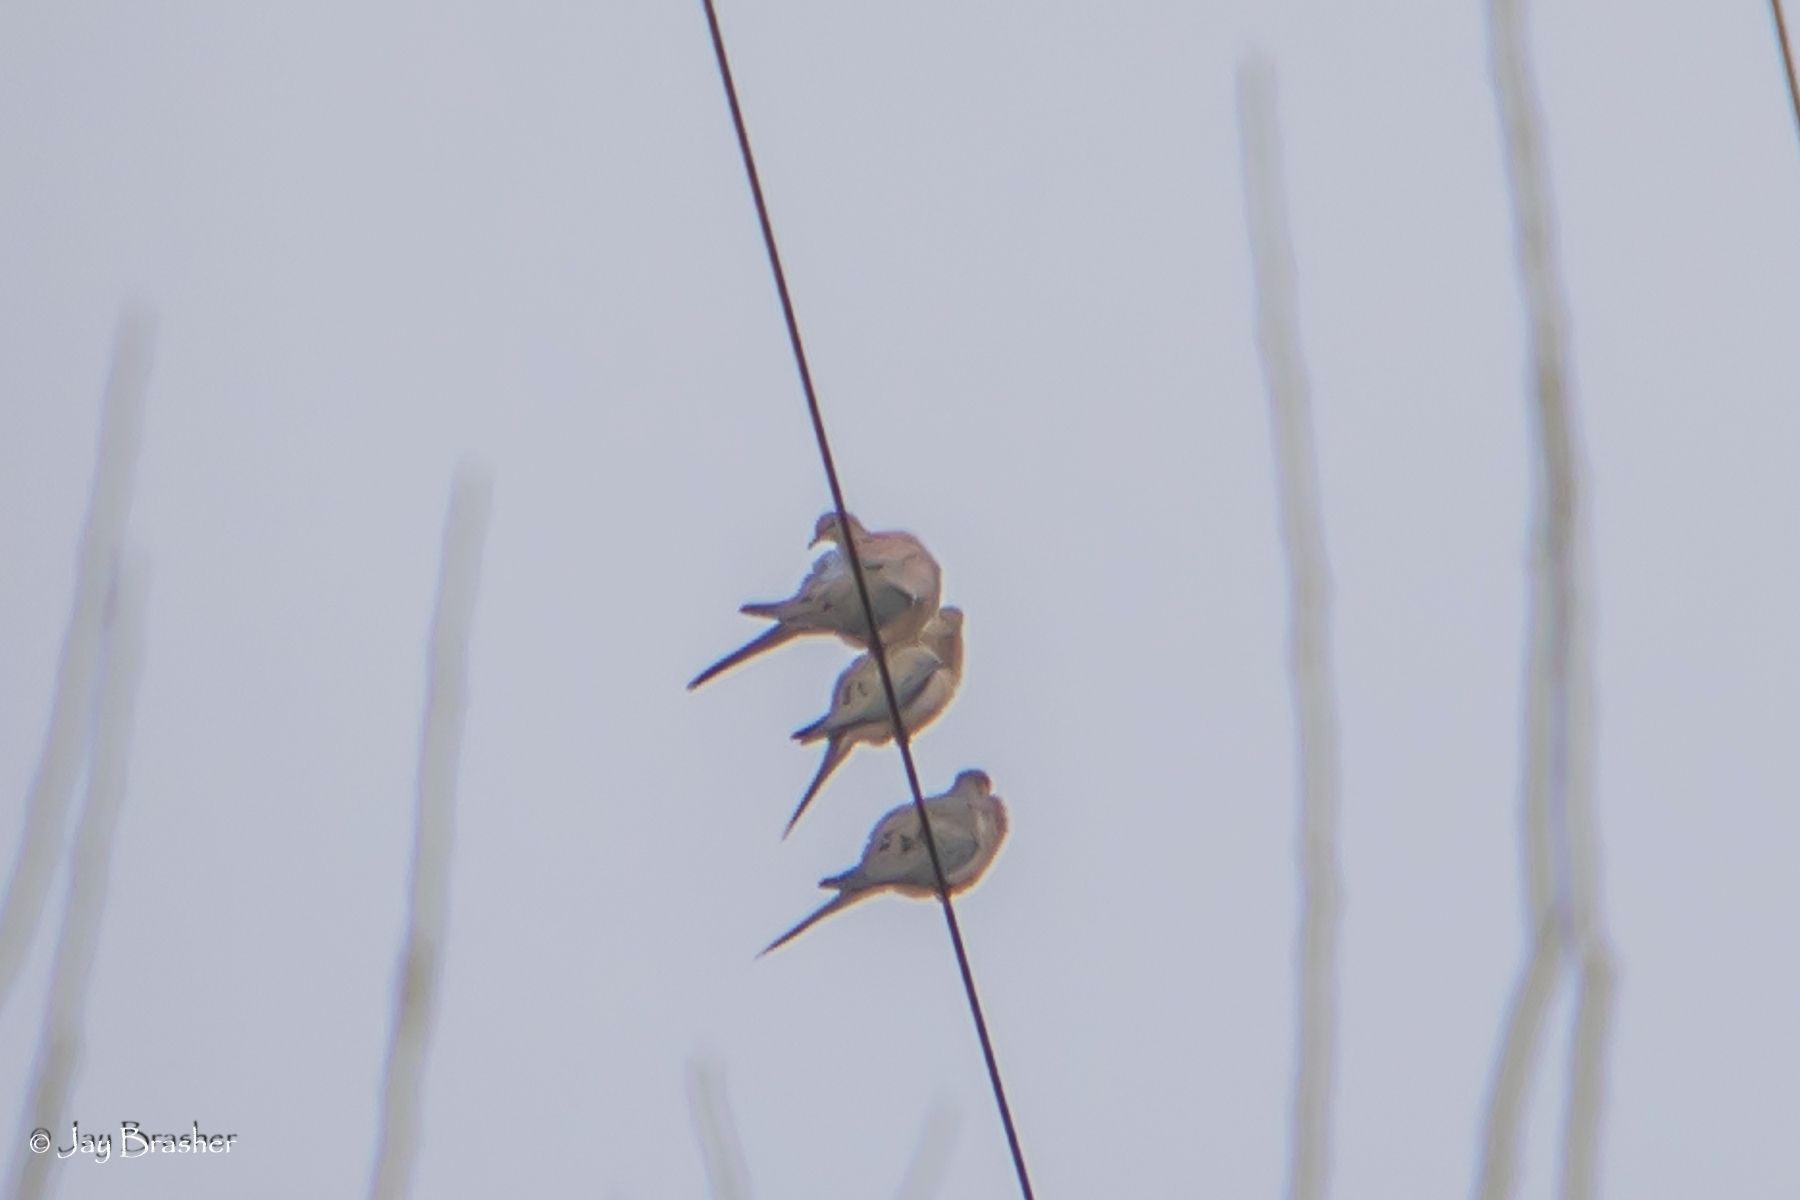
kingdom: Animalia
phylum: Chordata
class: Aves
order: Columbiformes
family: Columbidae
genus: Zenaida
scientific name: Zenaida macroura
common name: Mourning dove
